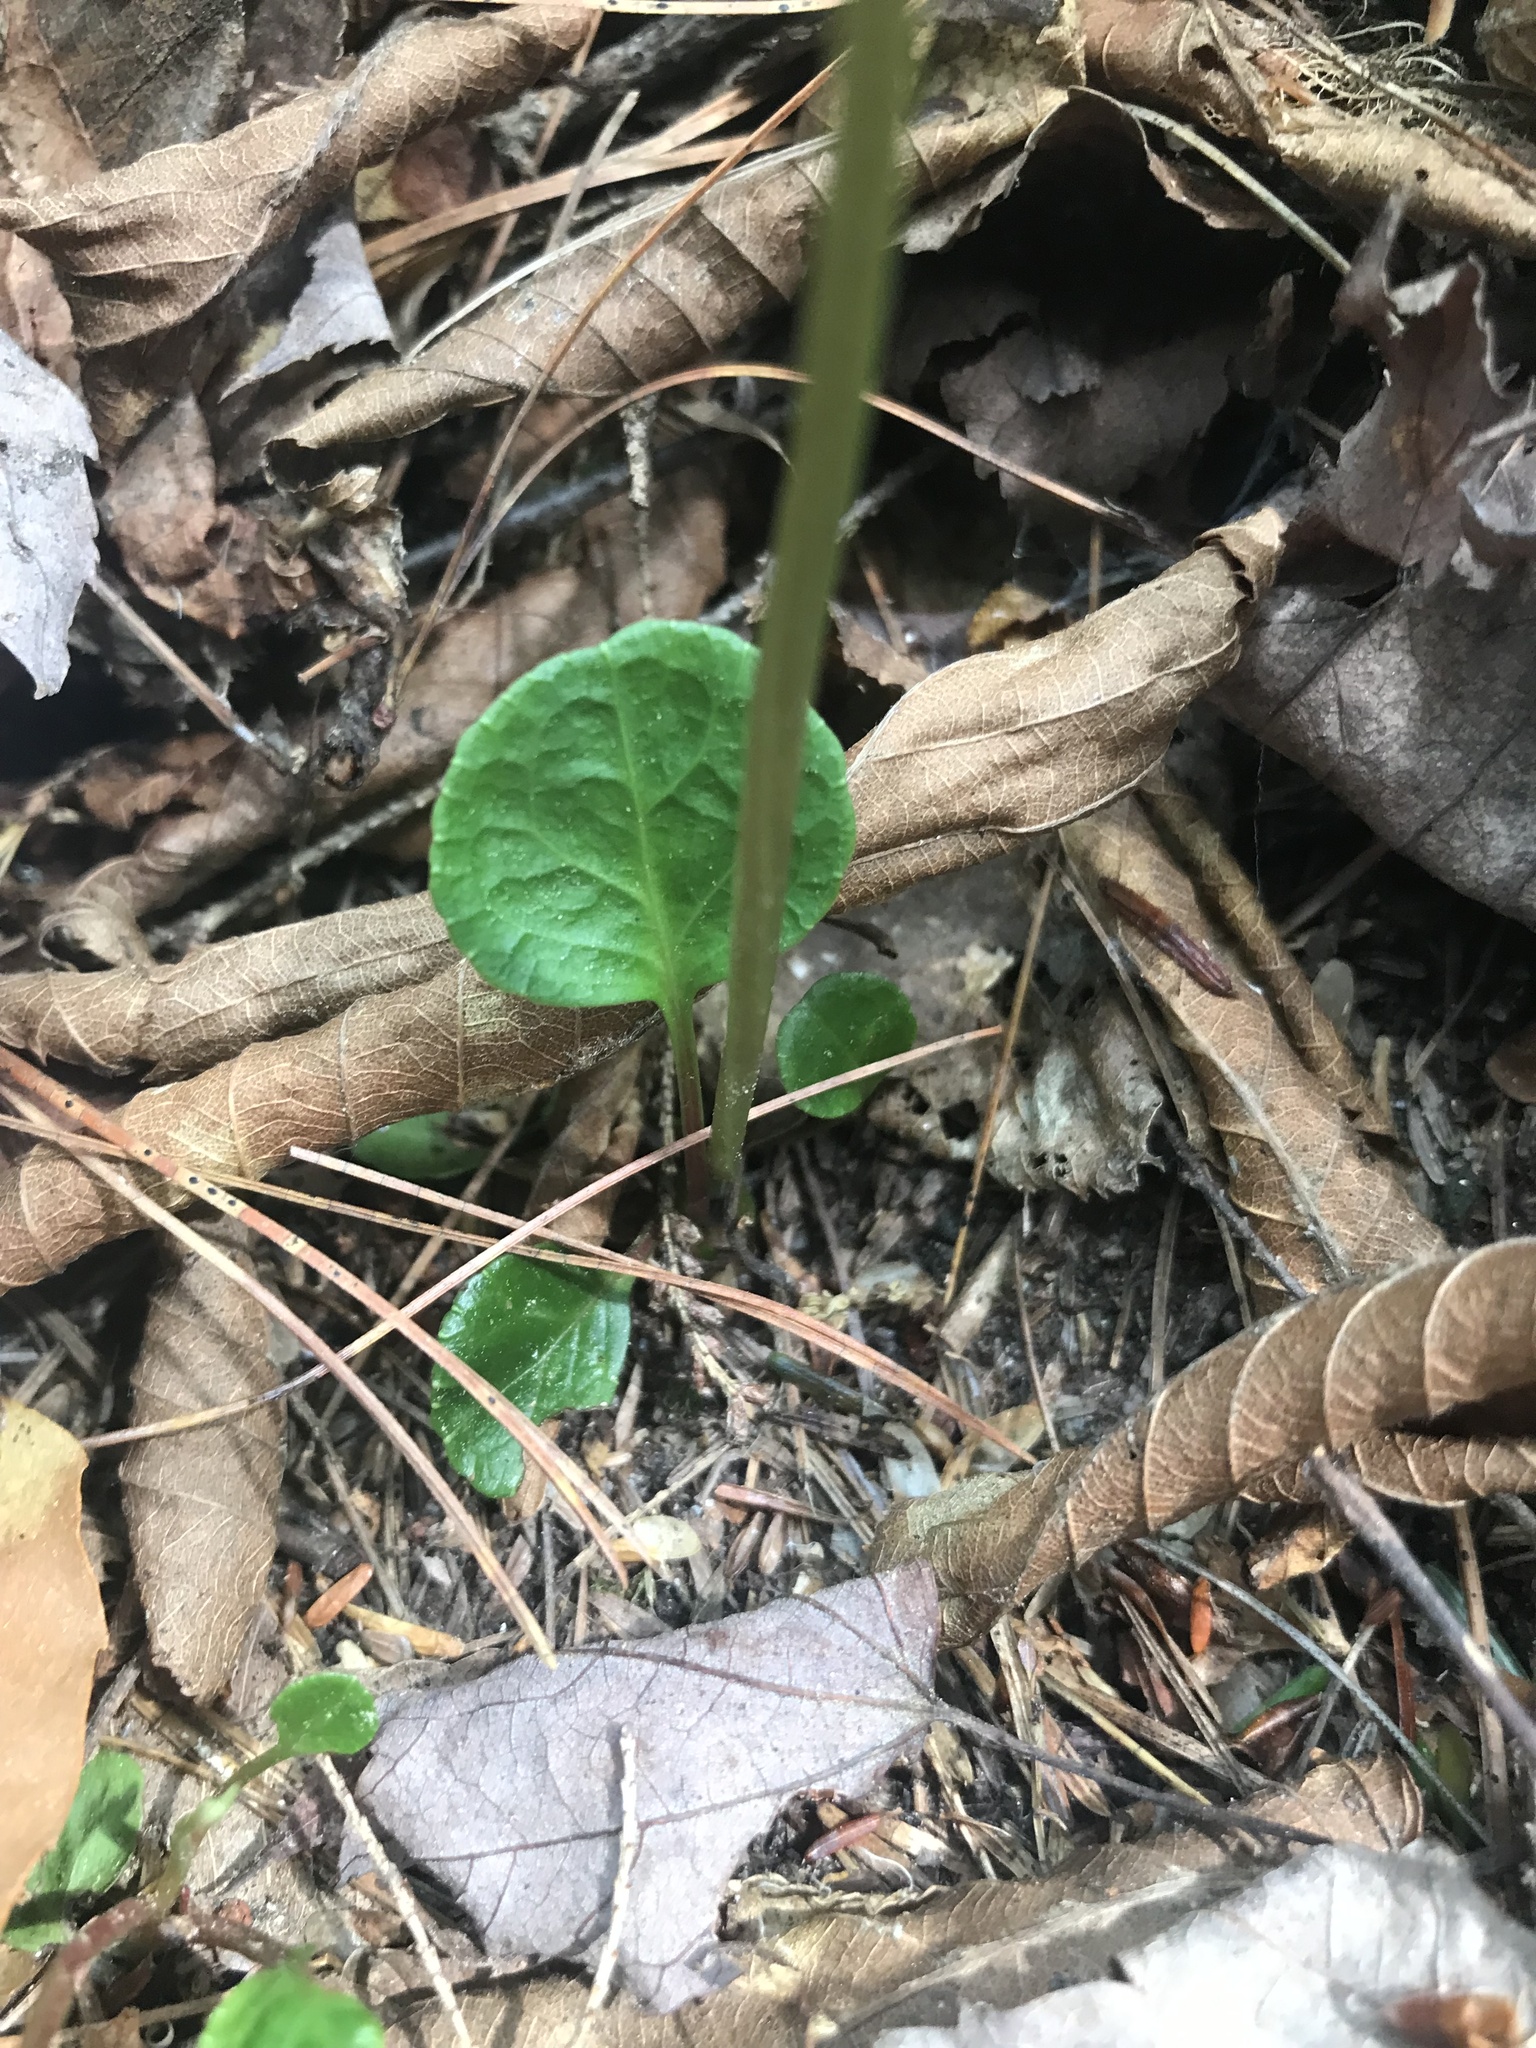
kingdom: Plantae
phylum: Tracheophyta
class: Magnoliopsida
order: Ericales
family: Ericaceae
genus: Pyrola
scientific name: Pyrola chlorantha
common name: Green wintergreen
